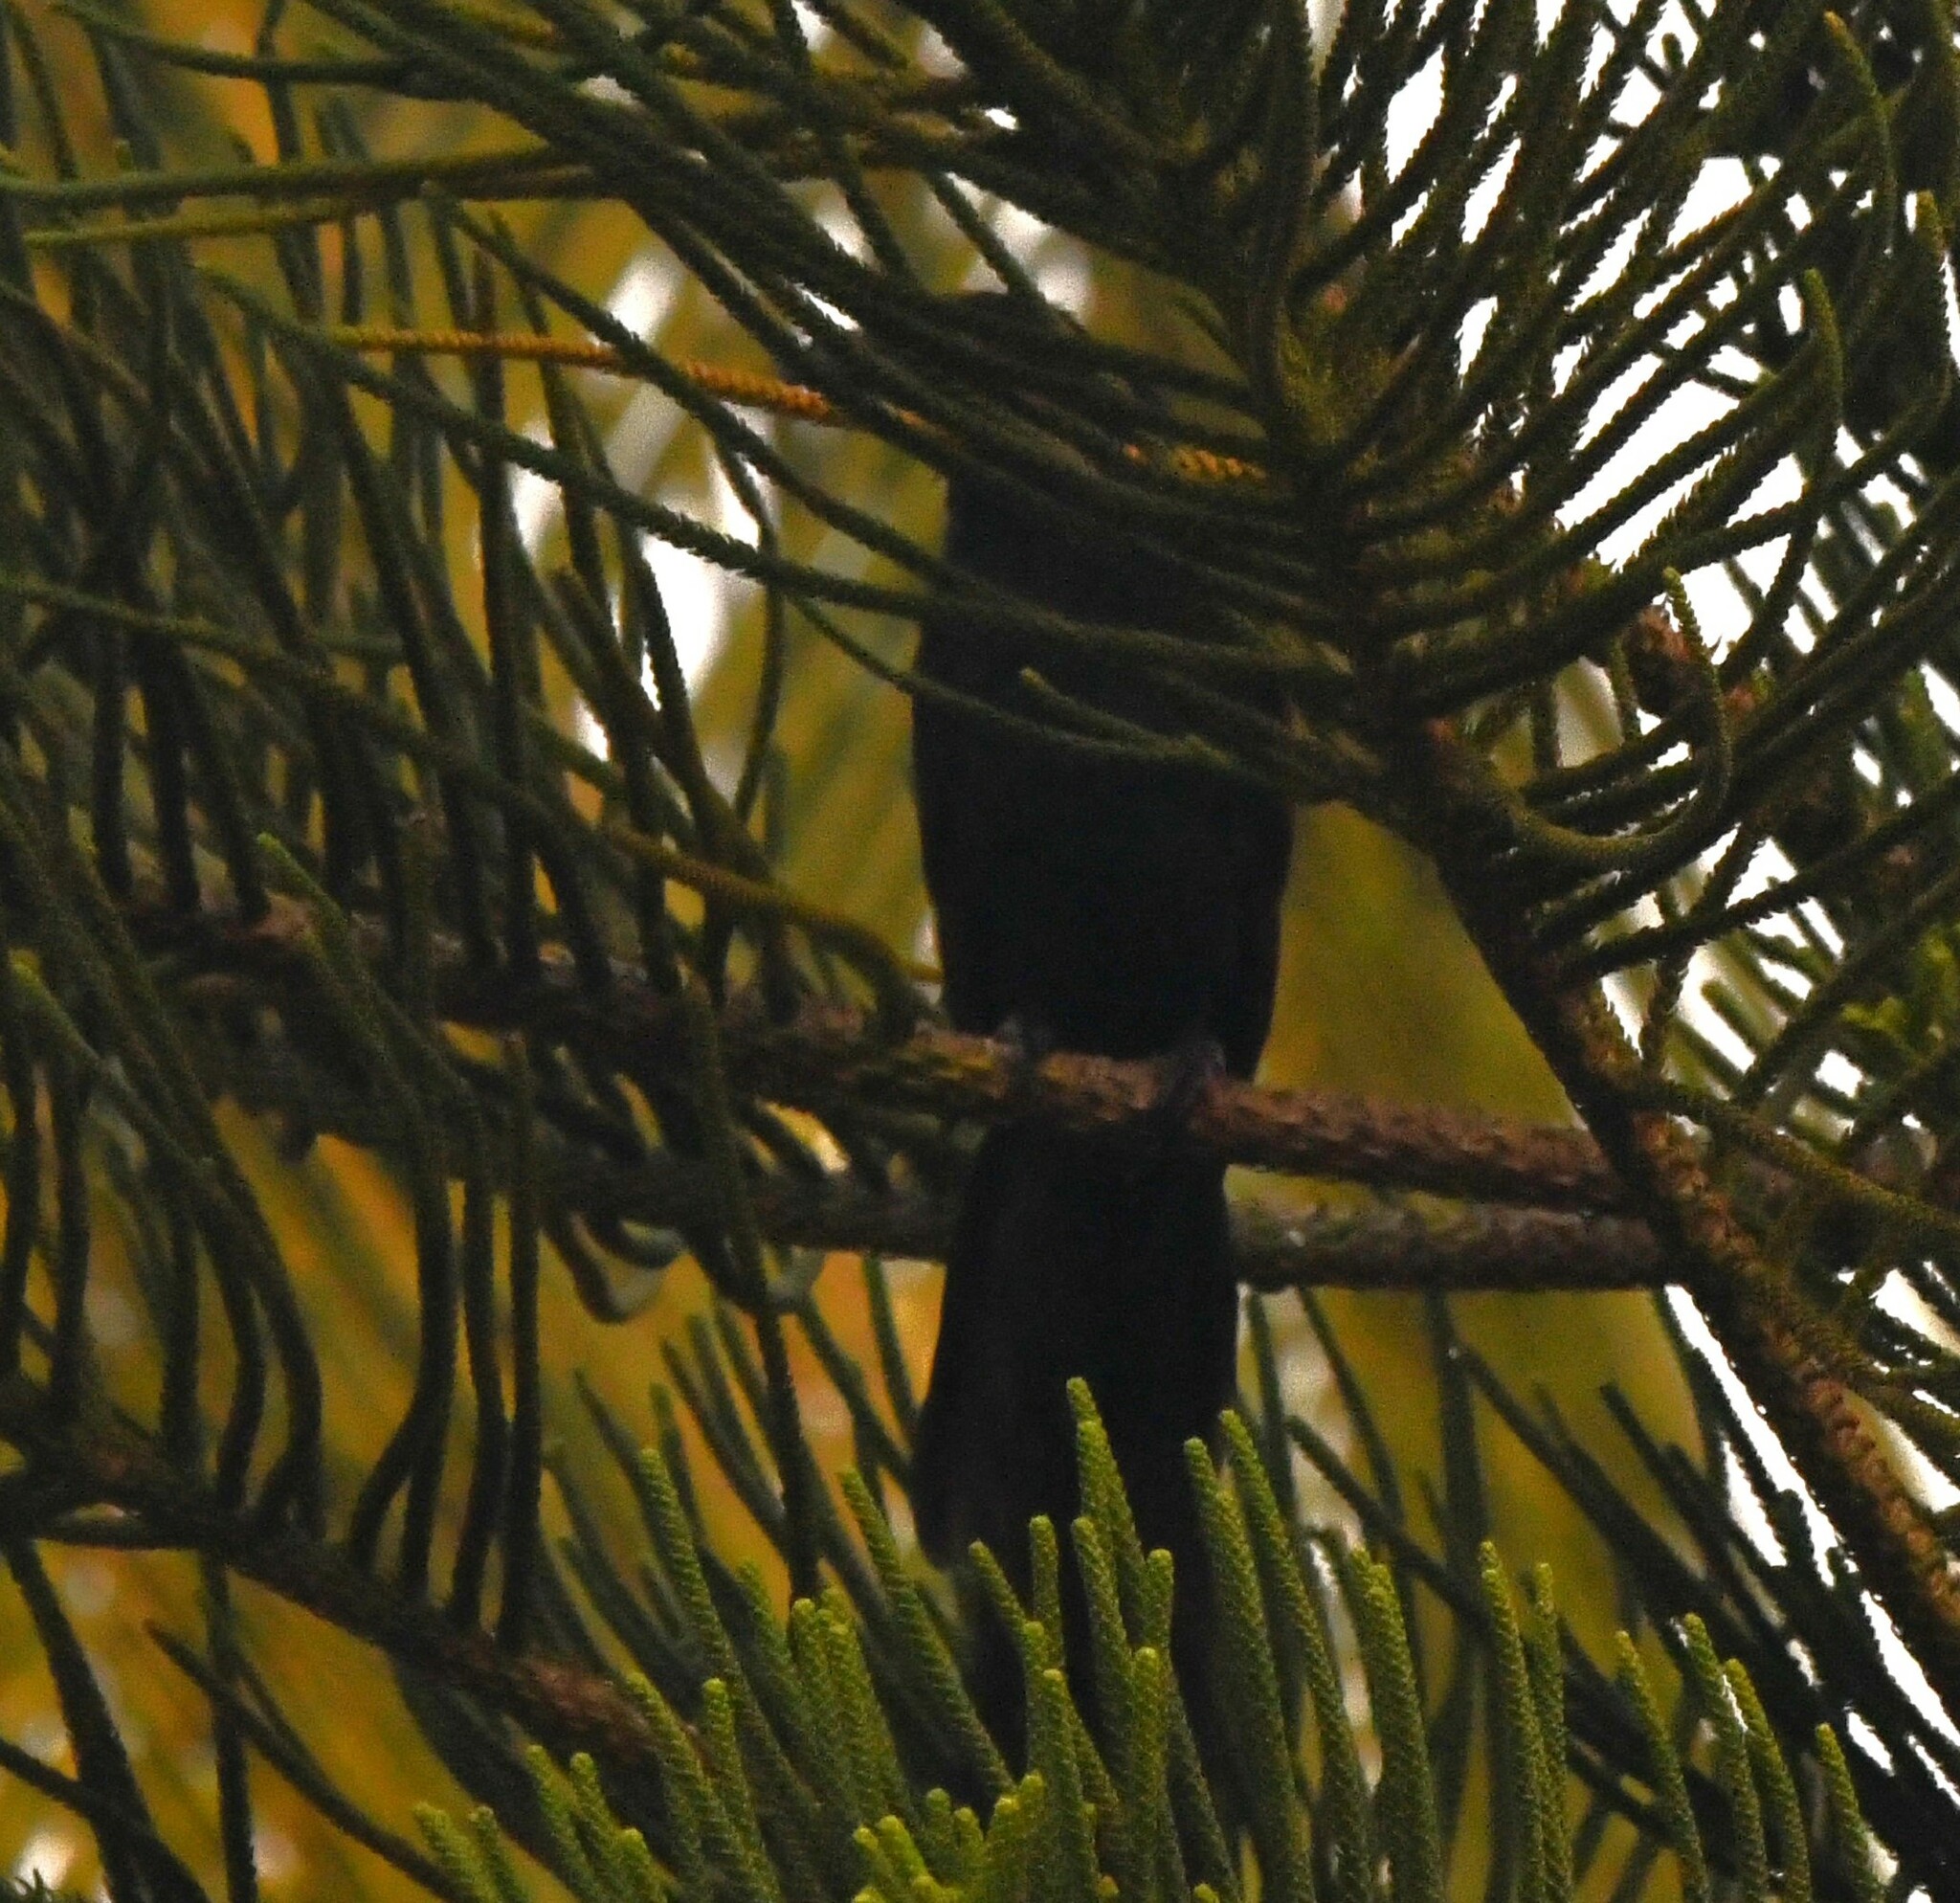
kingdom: Animalia
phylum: Chordata
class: Aves
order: Passeriformes
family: Corvidae
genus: Corvus
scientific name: Corvus macrorhynchos
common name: Large-billed crow
